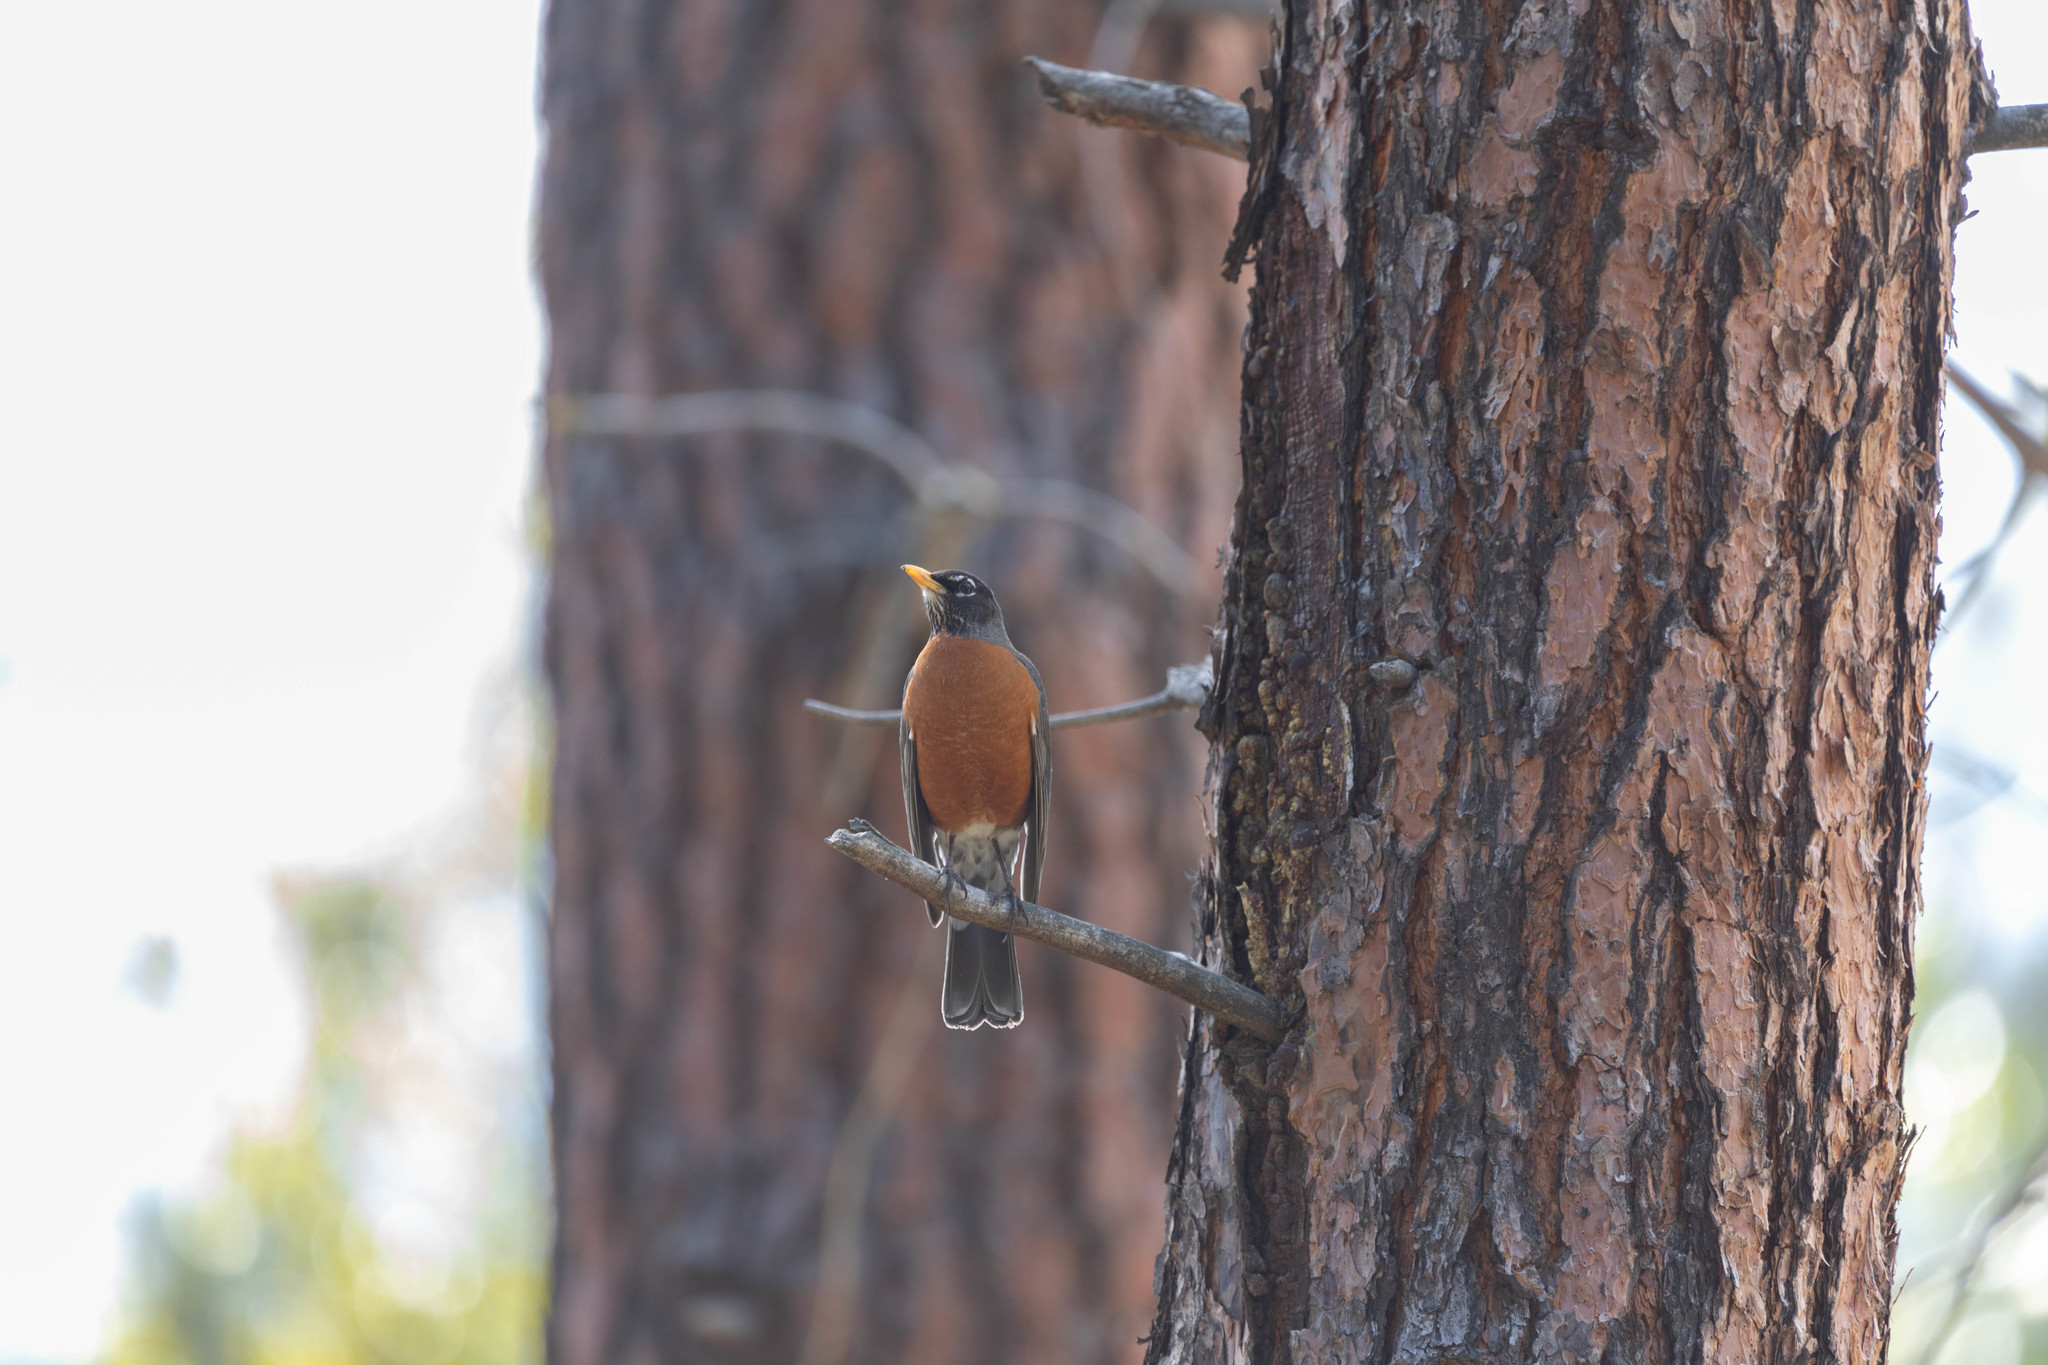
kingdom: Animalia
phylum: Chordata
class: Aves
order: Passeriformes
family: Turdidae
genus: Turdus
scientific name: Turdus migratorius
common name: American robin
